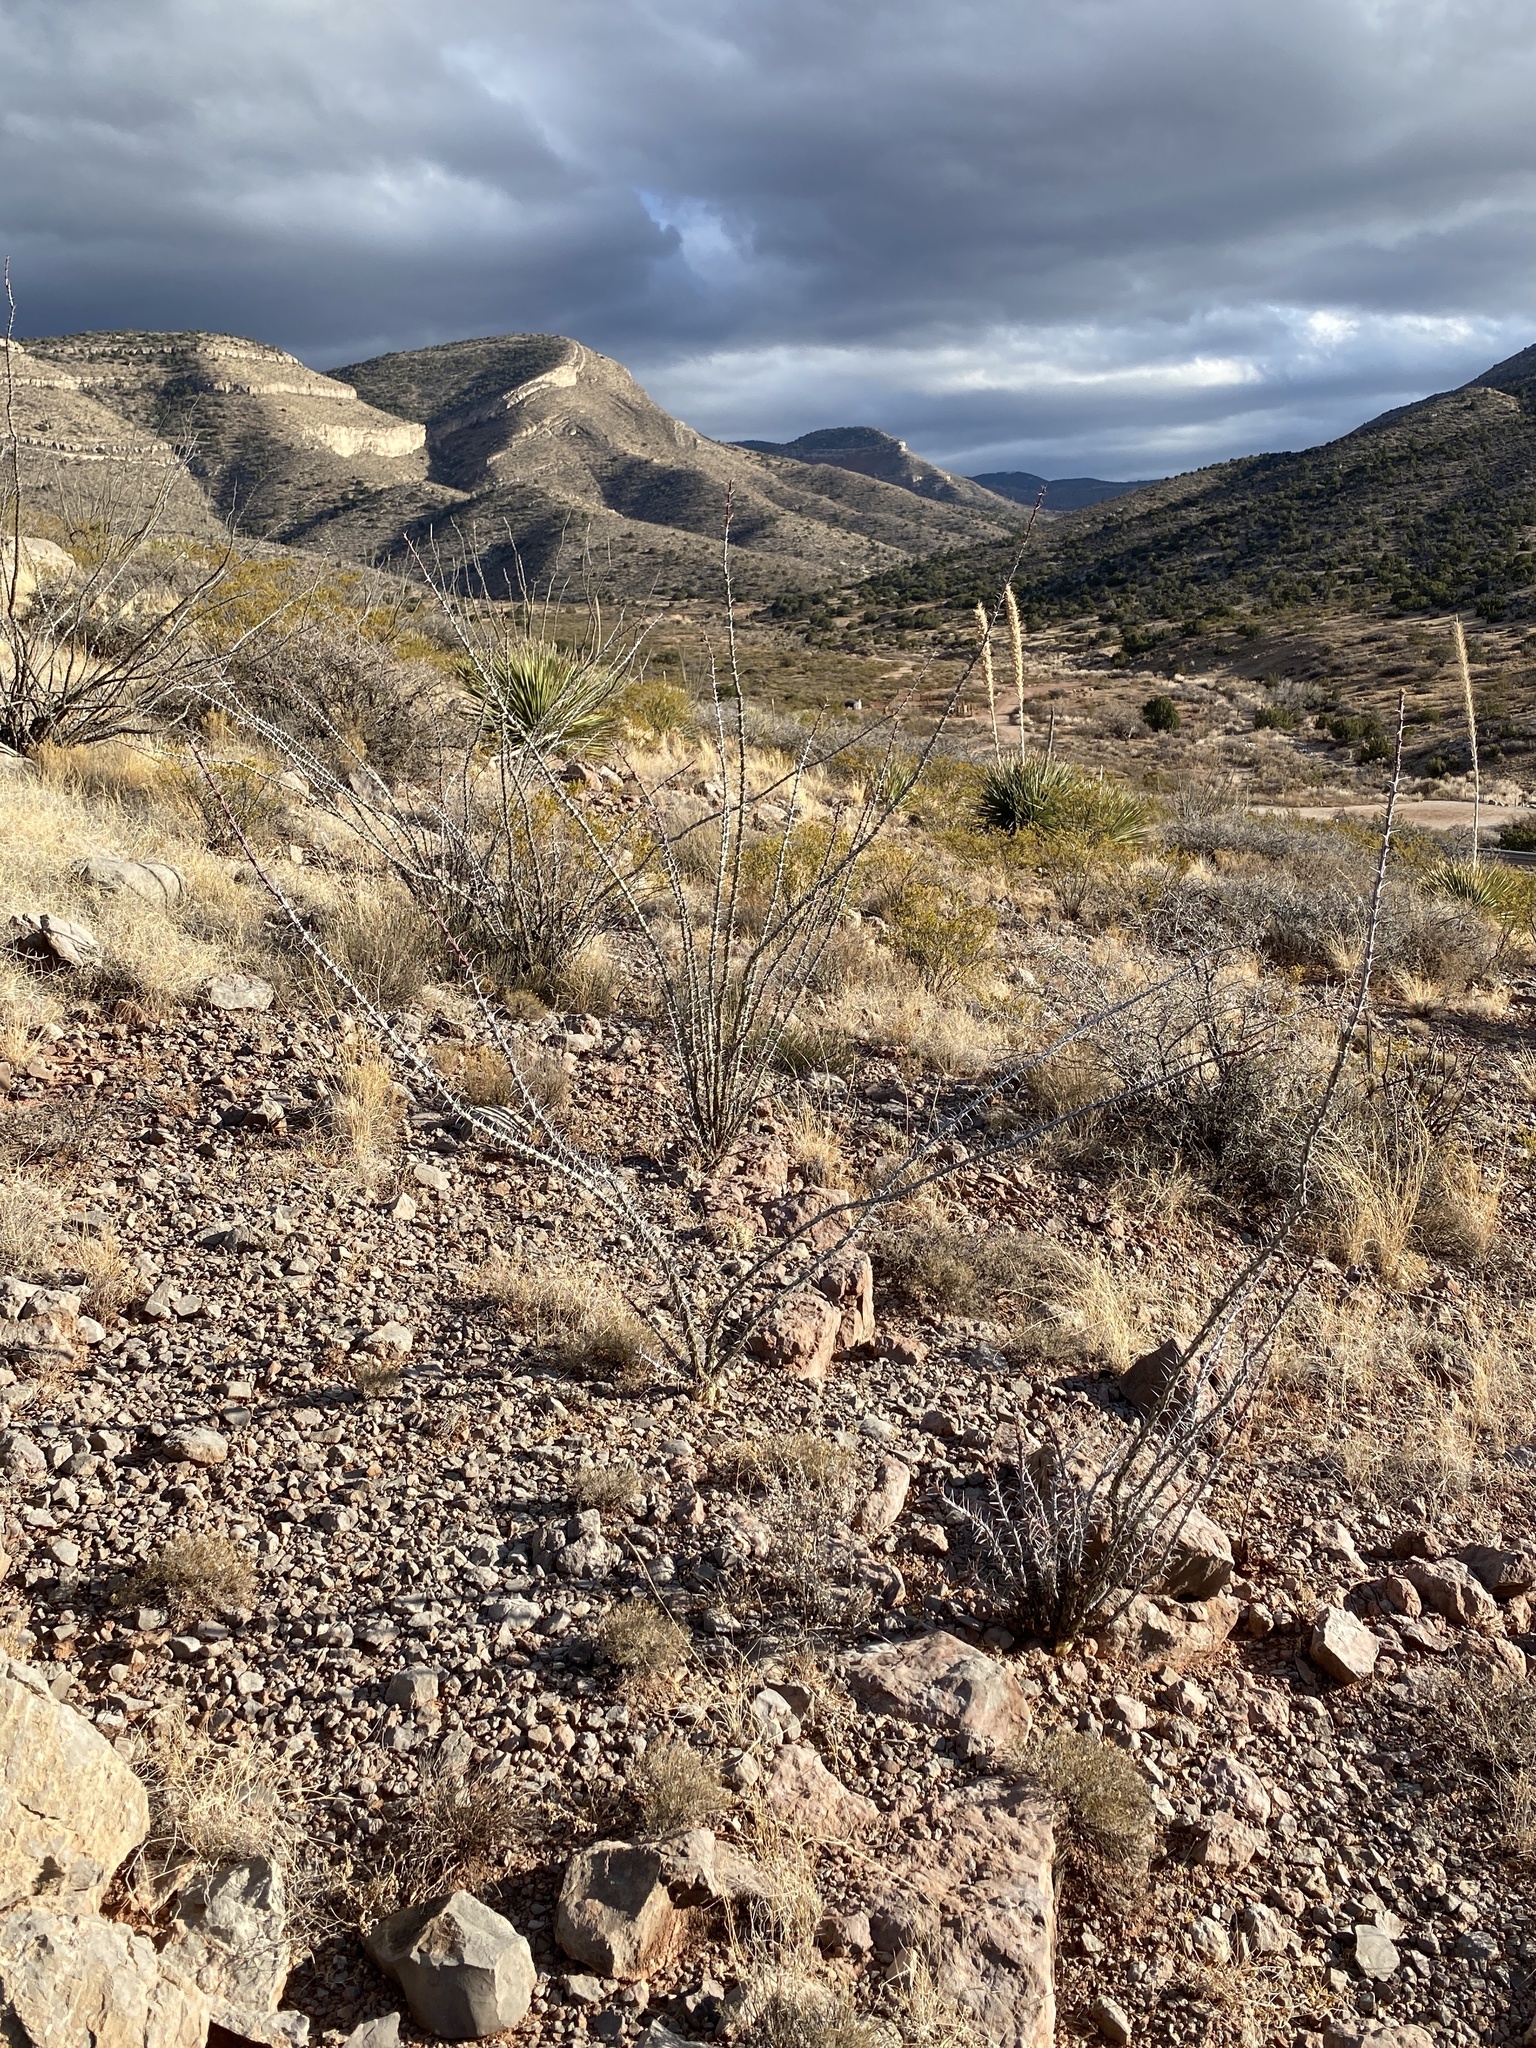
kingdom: Plantae
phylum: Tracheophyta
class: Magnoliopsida
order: Ericales
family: Fouquieriaceae
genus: Fouquieria
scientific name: Fouquieria splendens
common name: Vine-cactus
